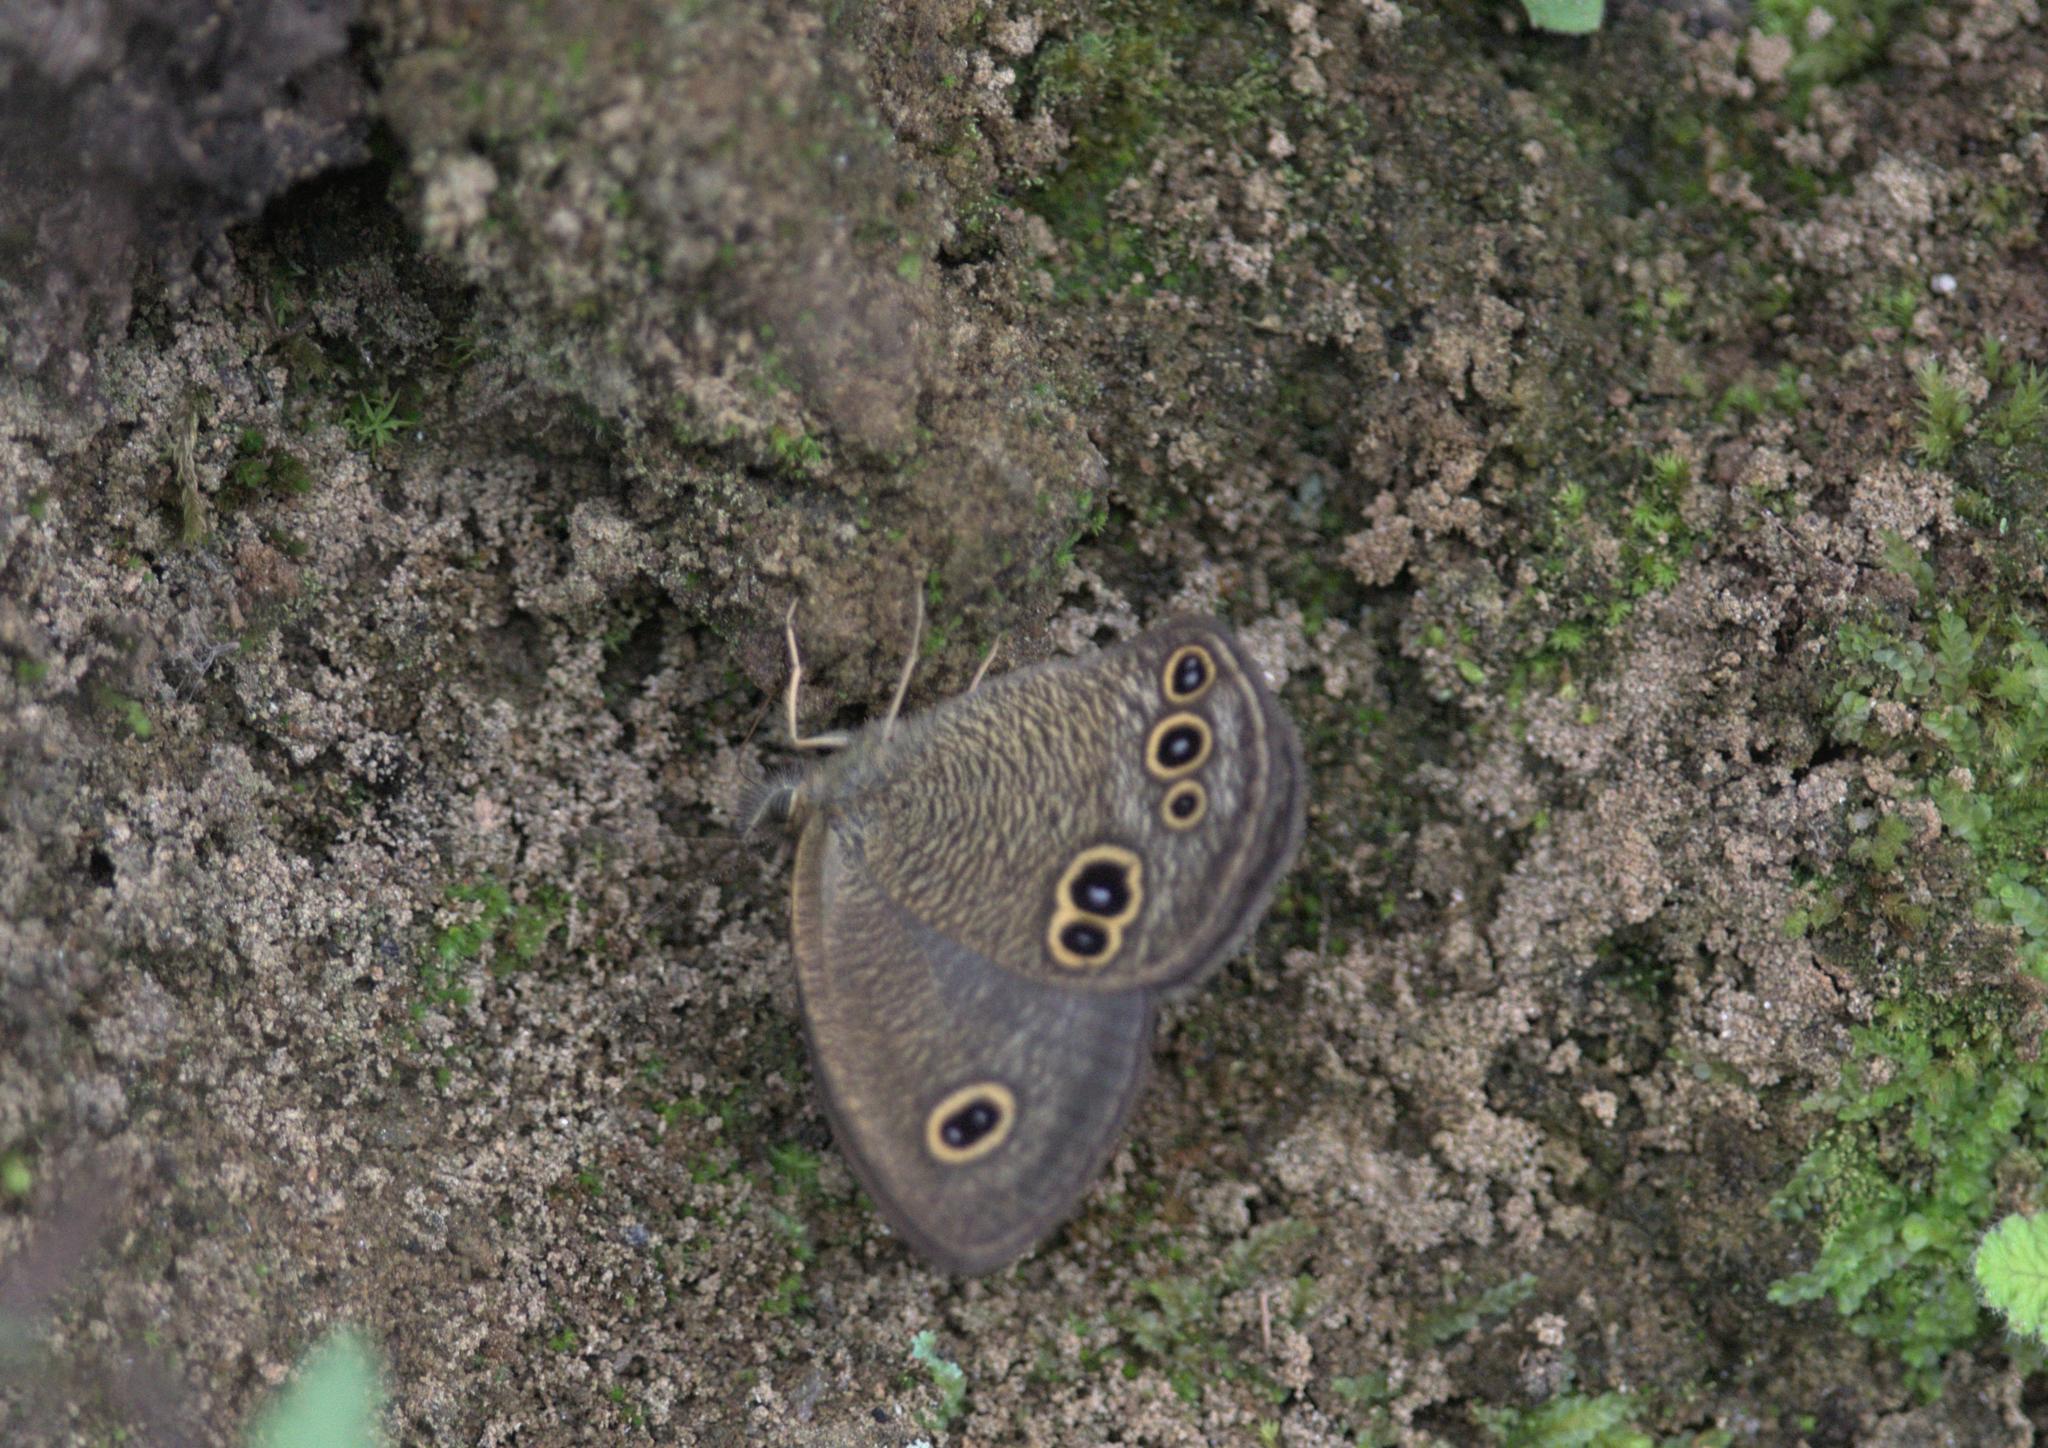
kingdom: Animalia
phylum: Arthropoda
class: Insecta
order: Lepidoptera
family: Nymphalidae
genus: Ypthima
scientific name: Ypthima nikaea
